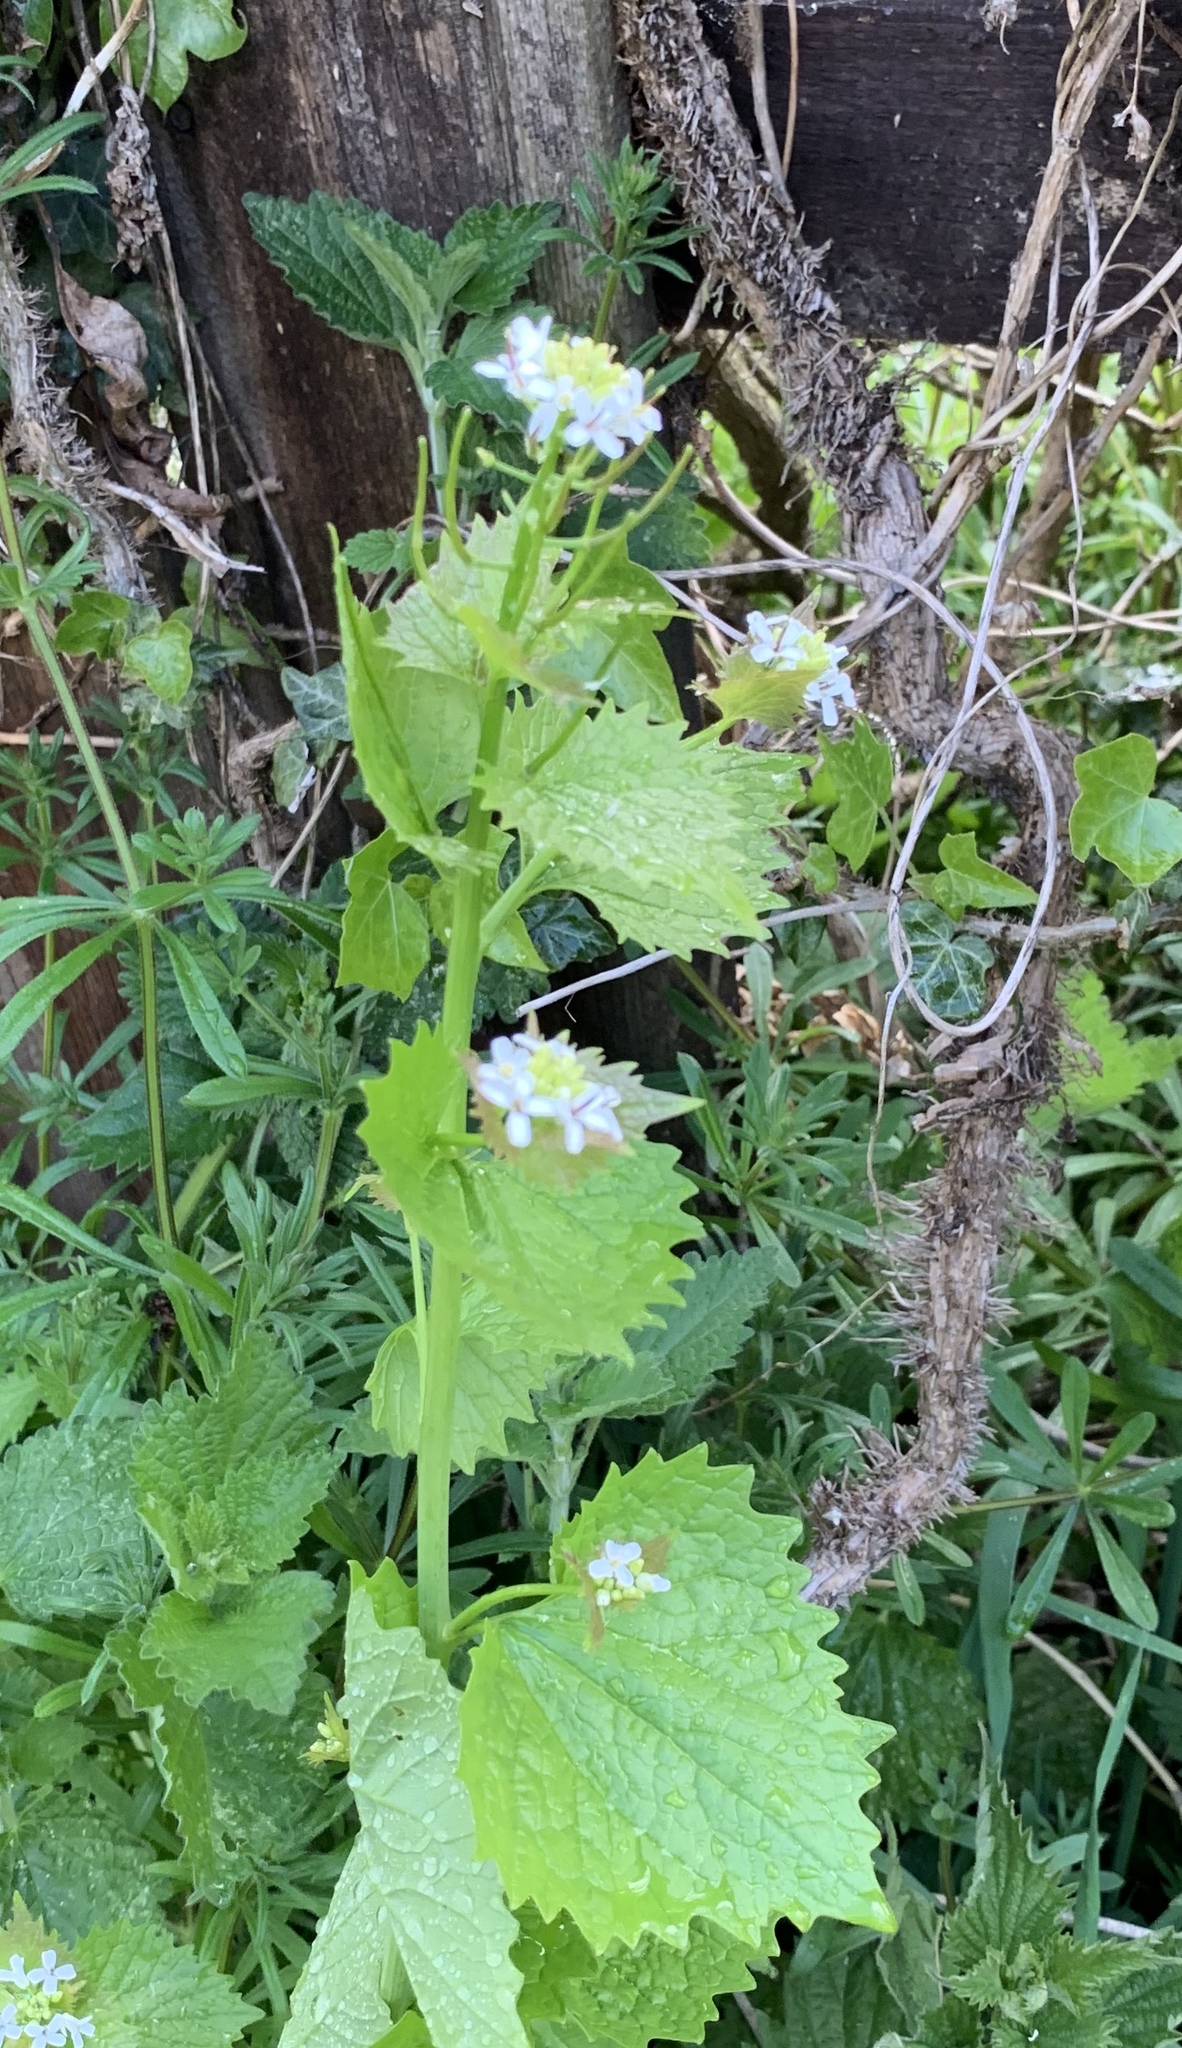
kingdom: Plantae
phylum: Tracheophyta
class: Magnoliopsida
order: Brassicales
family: Brassicaceae
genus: Alliaria
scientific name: Alliaria petiolata
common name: Garlic mustard
